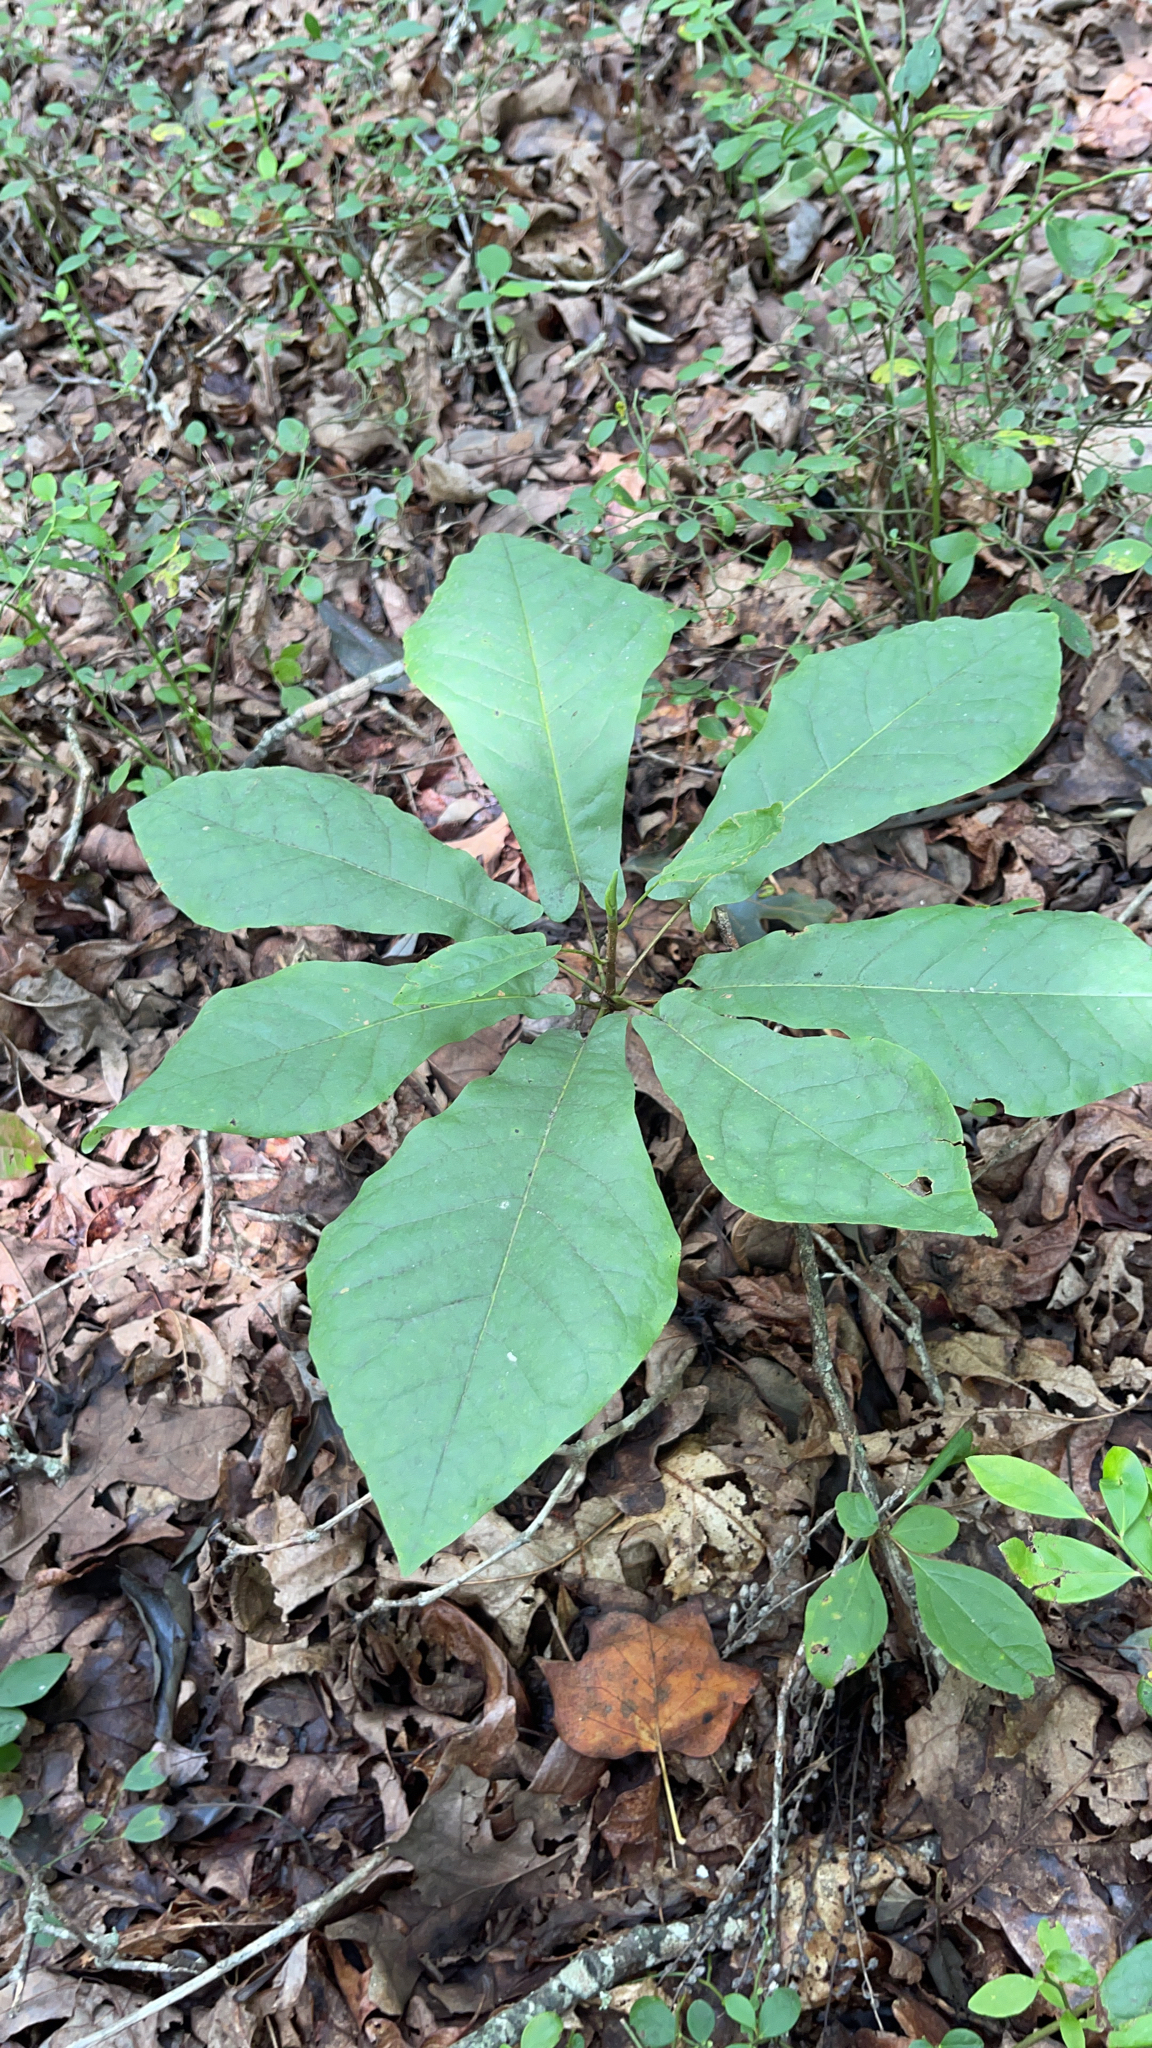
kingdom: Plantae
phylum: Tracheophyta
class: Magnoliopsida
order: Magnoliales
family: Magnoliaceae
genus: Magnolia
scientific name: Magnolia fraseri
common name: Fraser's magnolia
